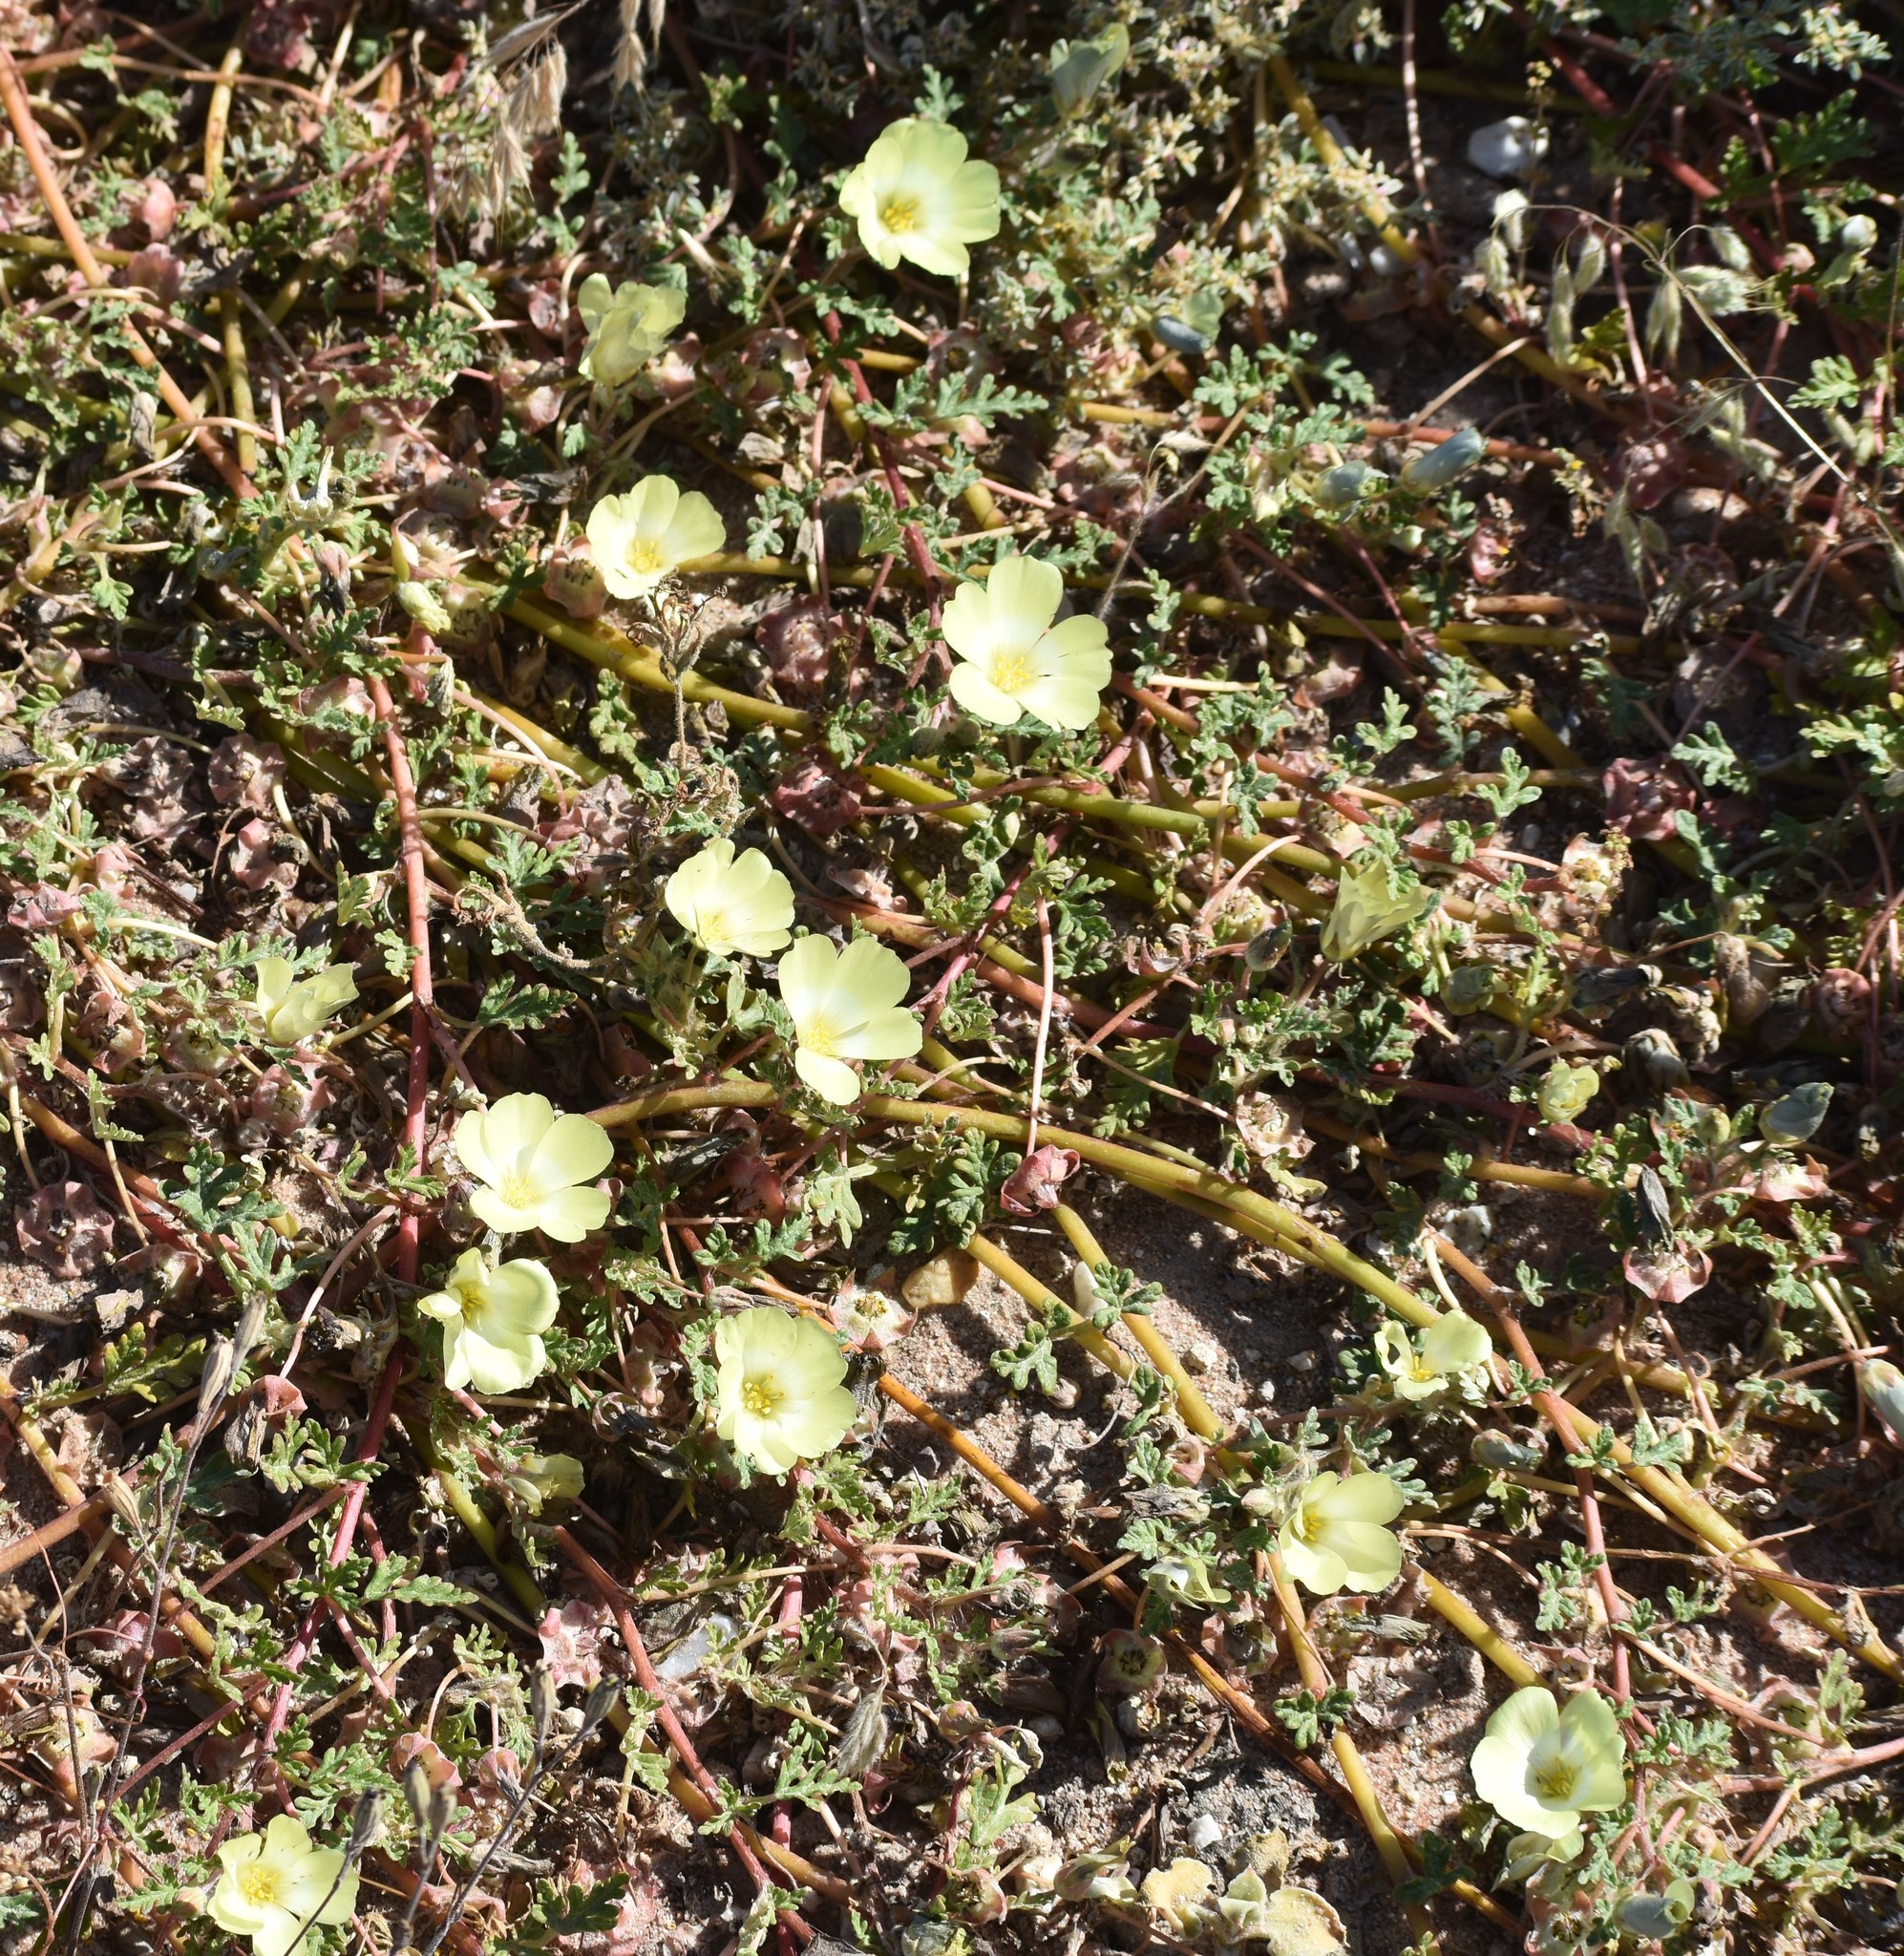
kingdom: Plantae
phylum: Tracheophyta
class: Magnoliopsida
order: Malvales
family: Neuradaceae
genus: Grielum
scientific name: Grielum humifusum
